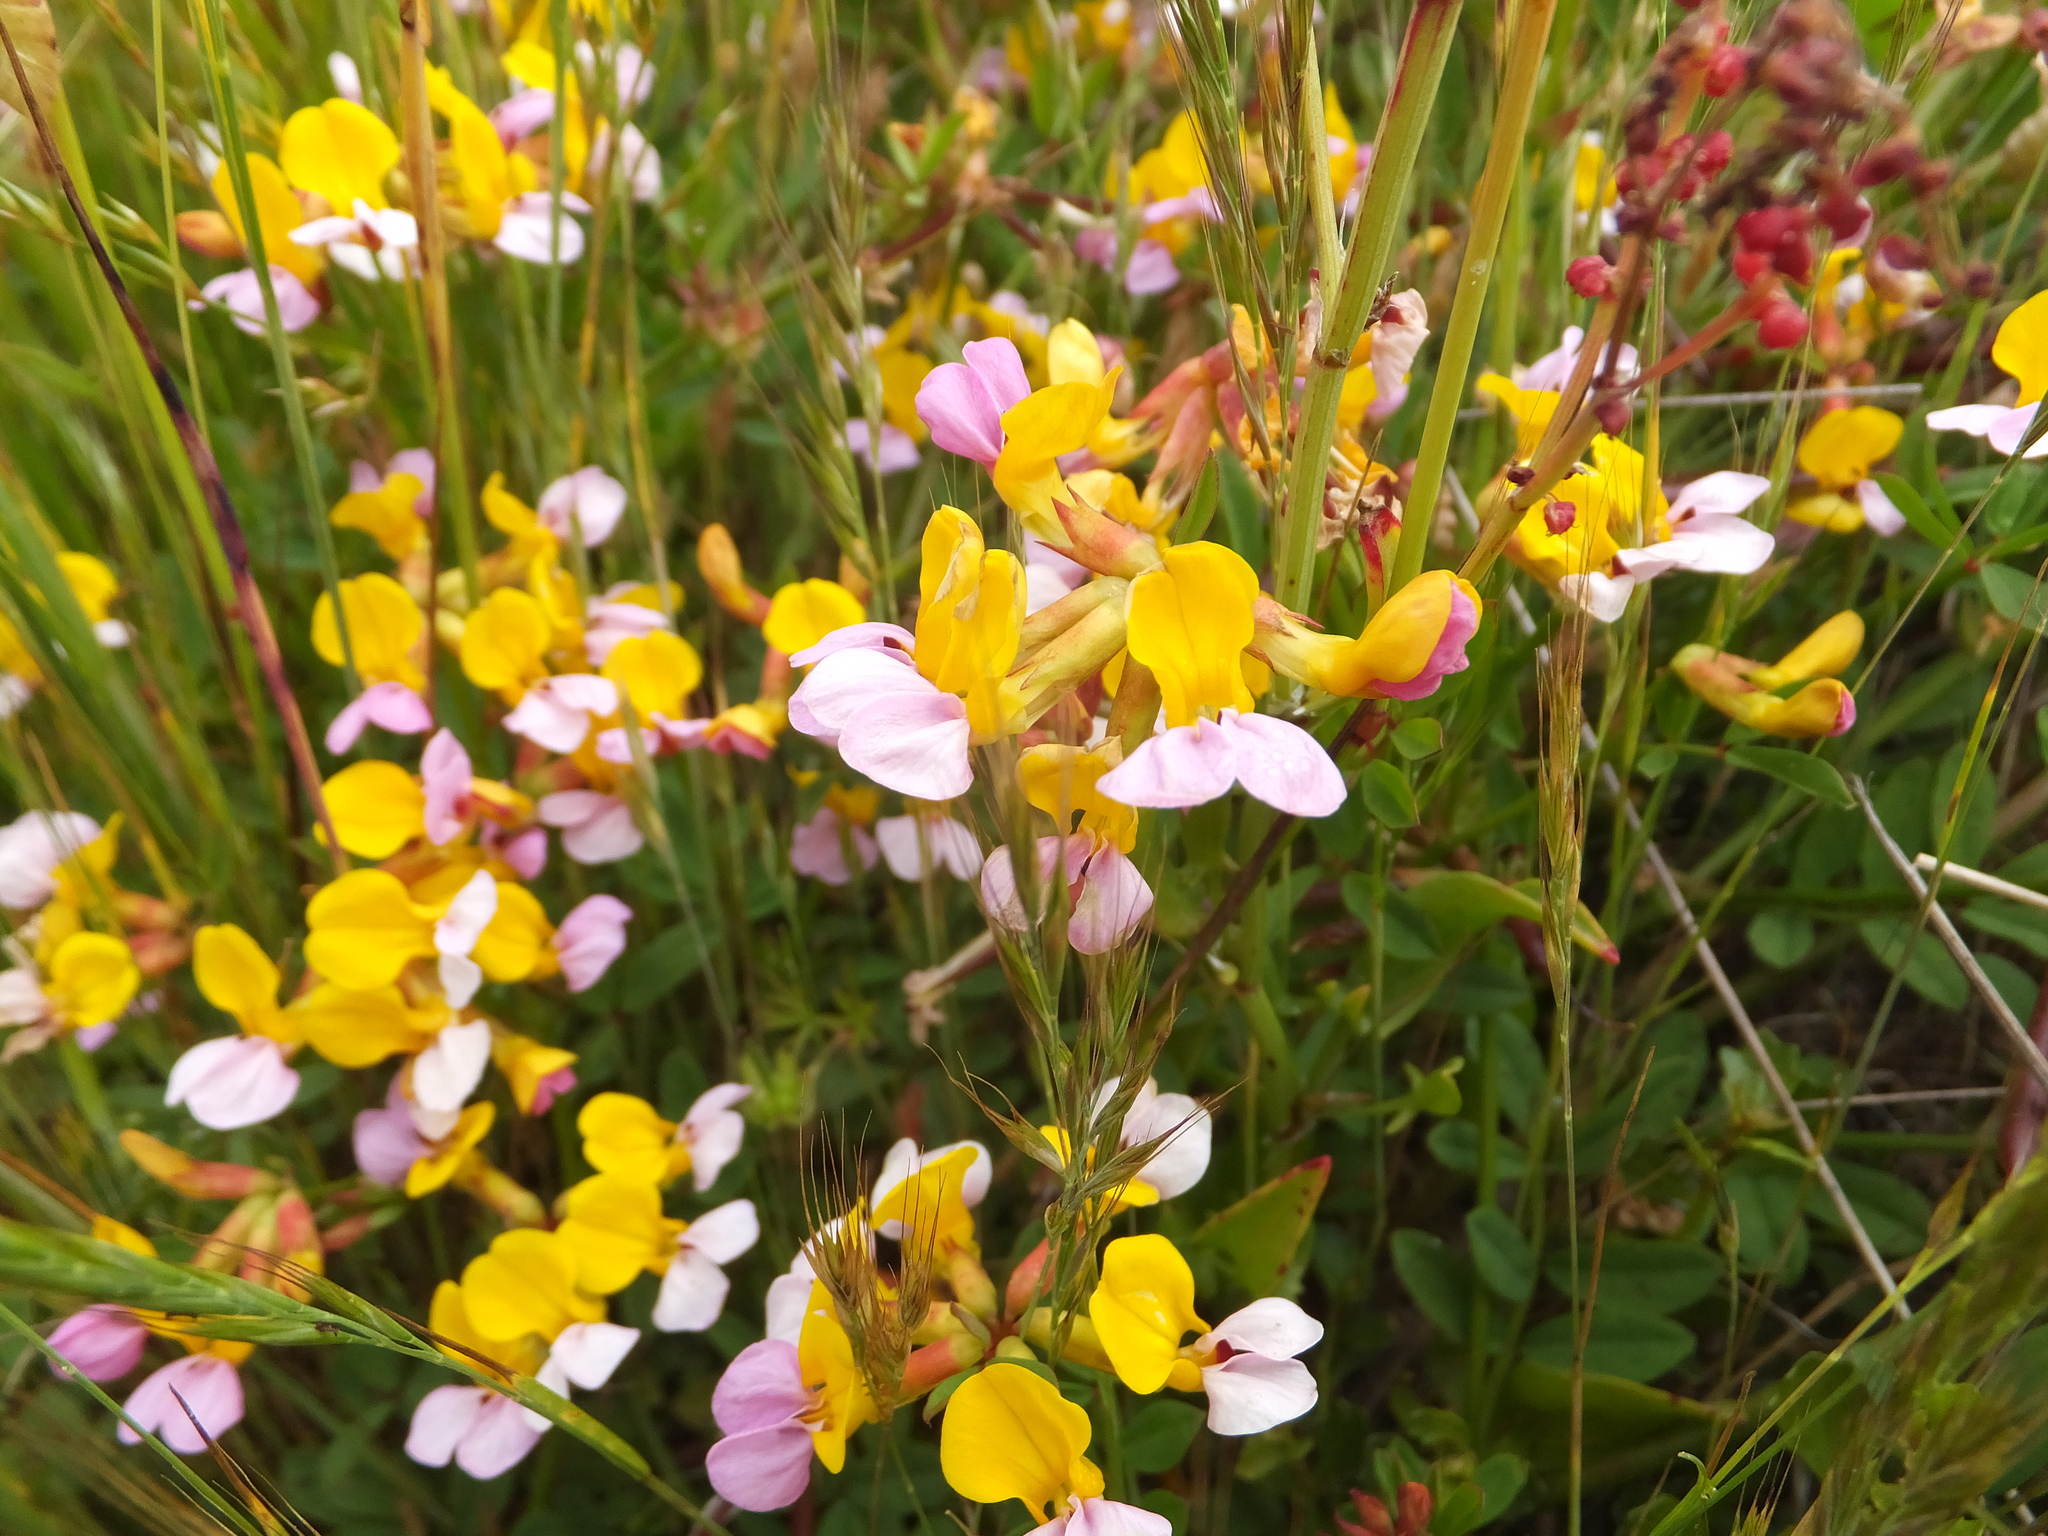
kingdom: Plantae
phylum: Tracheophyta
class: Magnoliopsida
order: Fabales
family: Fabaceae
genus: Hosackia
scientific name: Hosackia gracilis
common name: Seaside bird's-foot lotus
